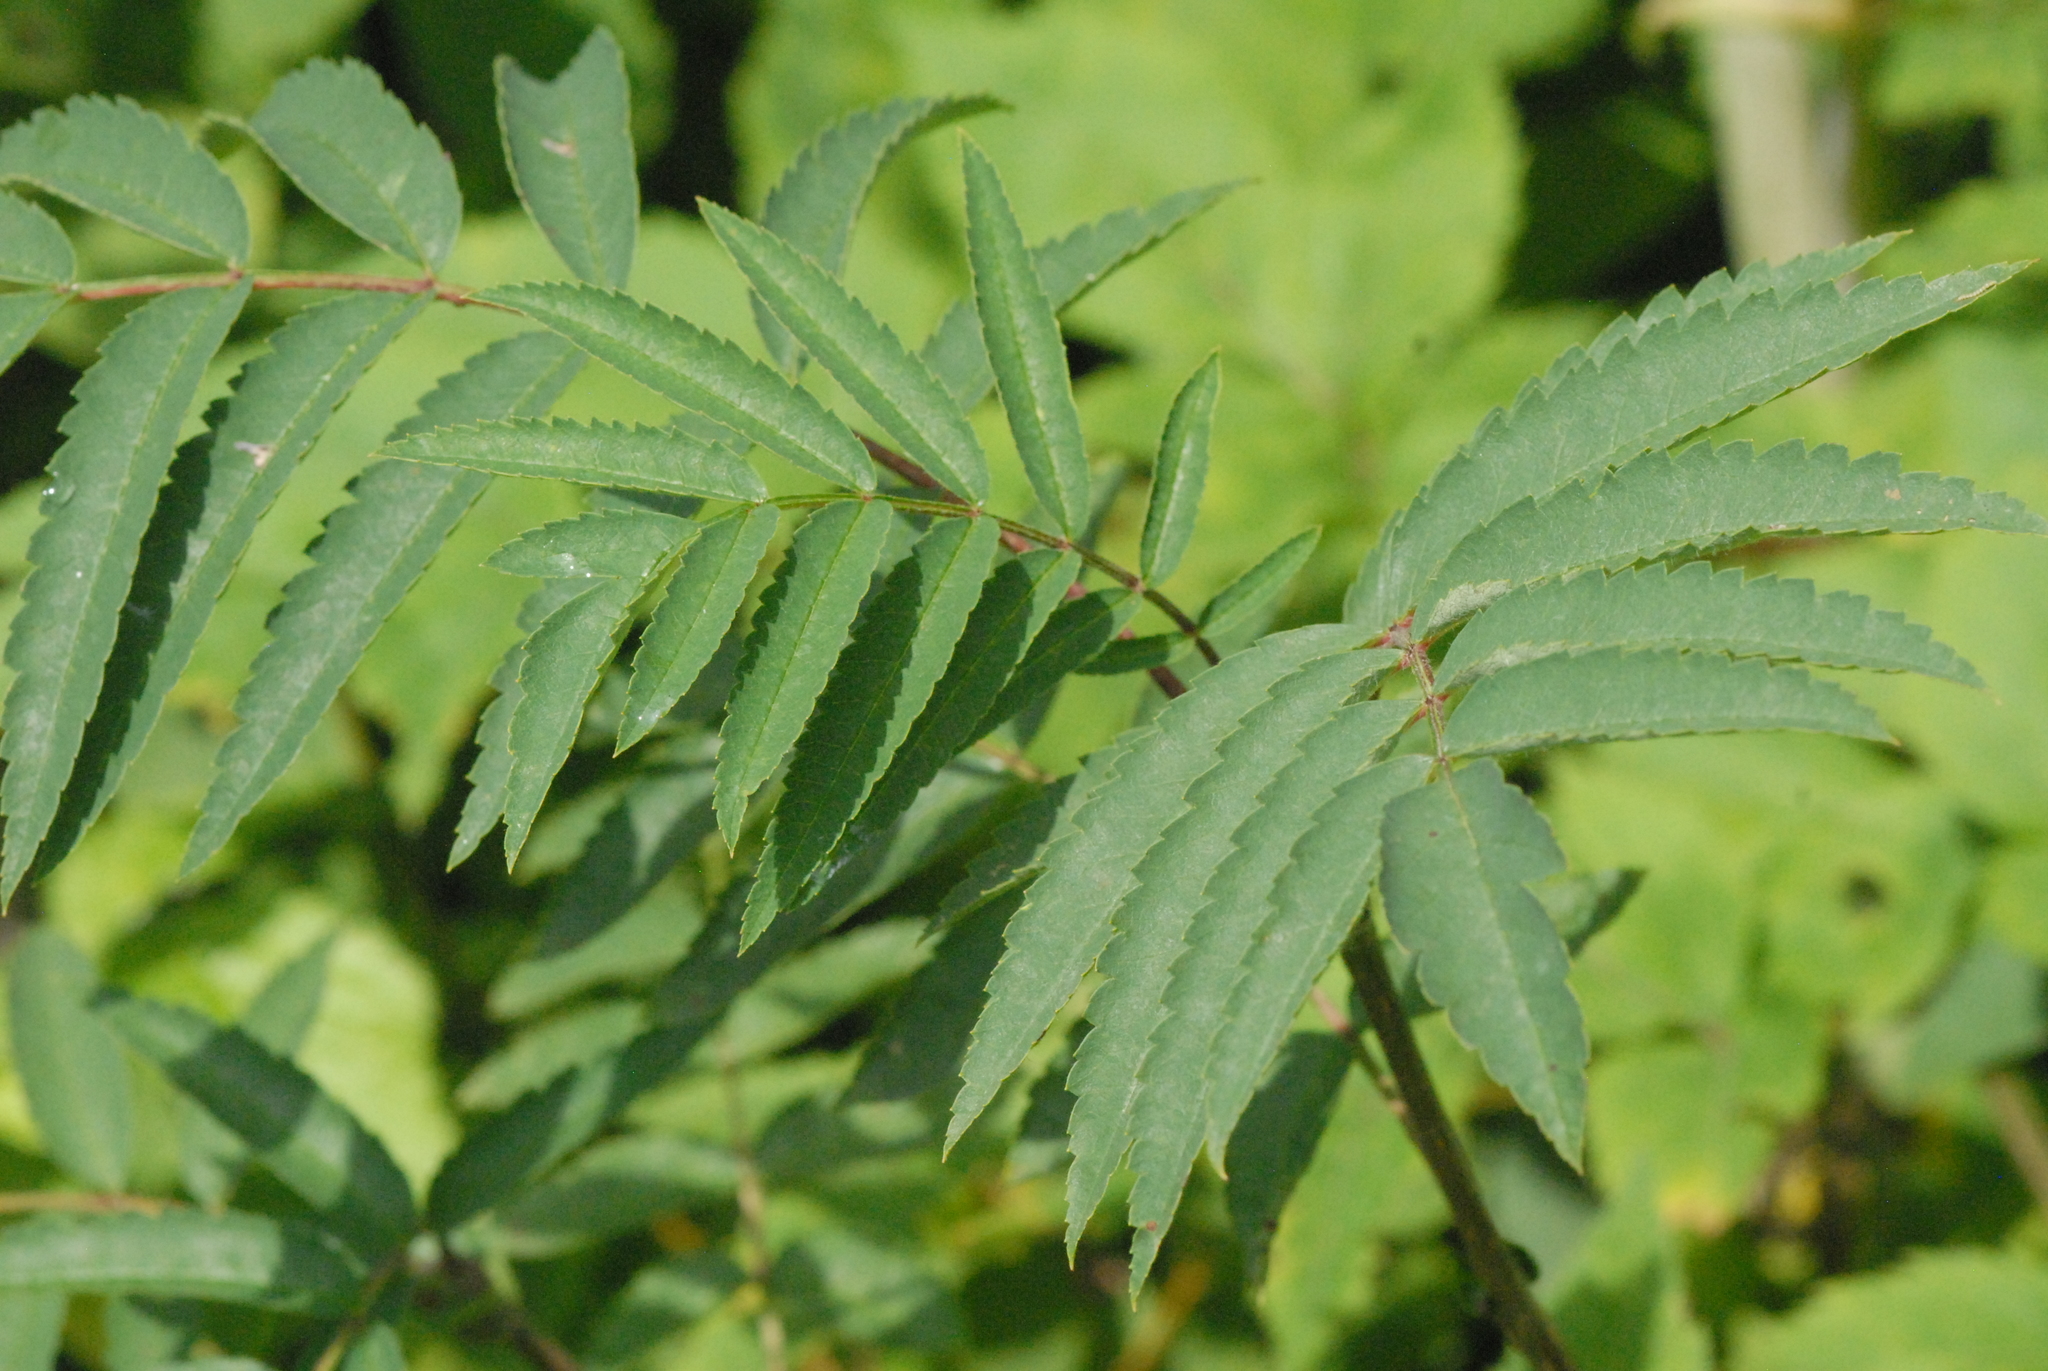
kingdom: Plantae
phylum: Tracheophyta
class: Magnoliopsida
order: Rosales
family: Rosaceae
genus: Sorbaria
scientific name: Sorbaria sorbifolia
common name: False spiraea
